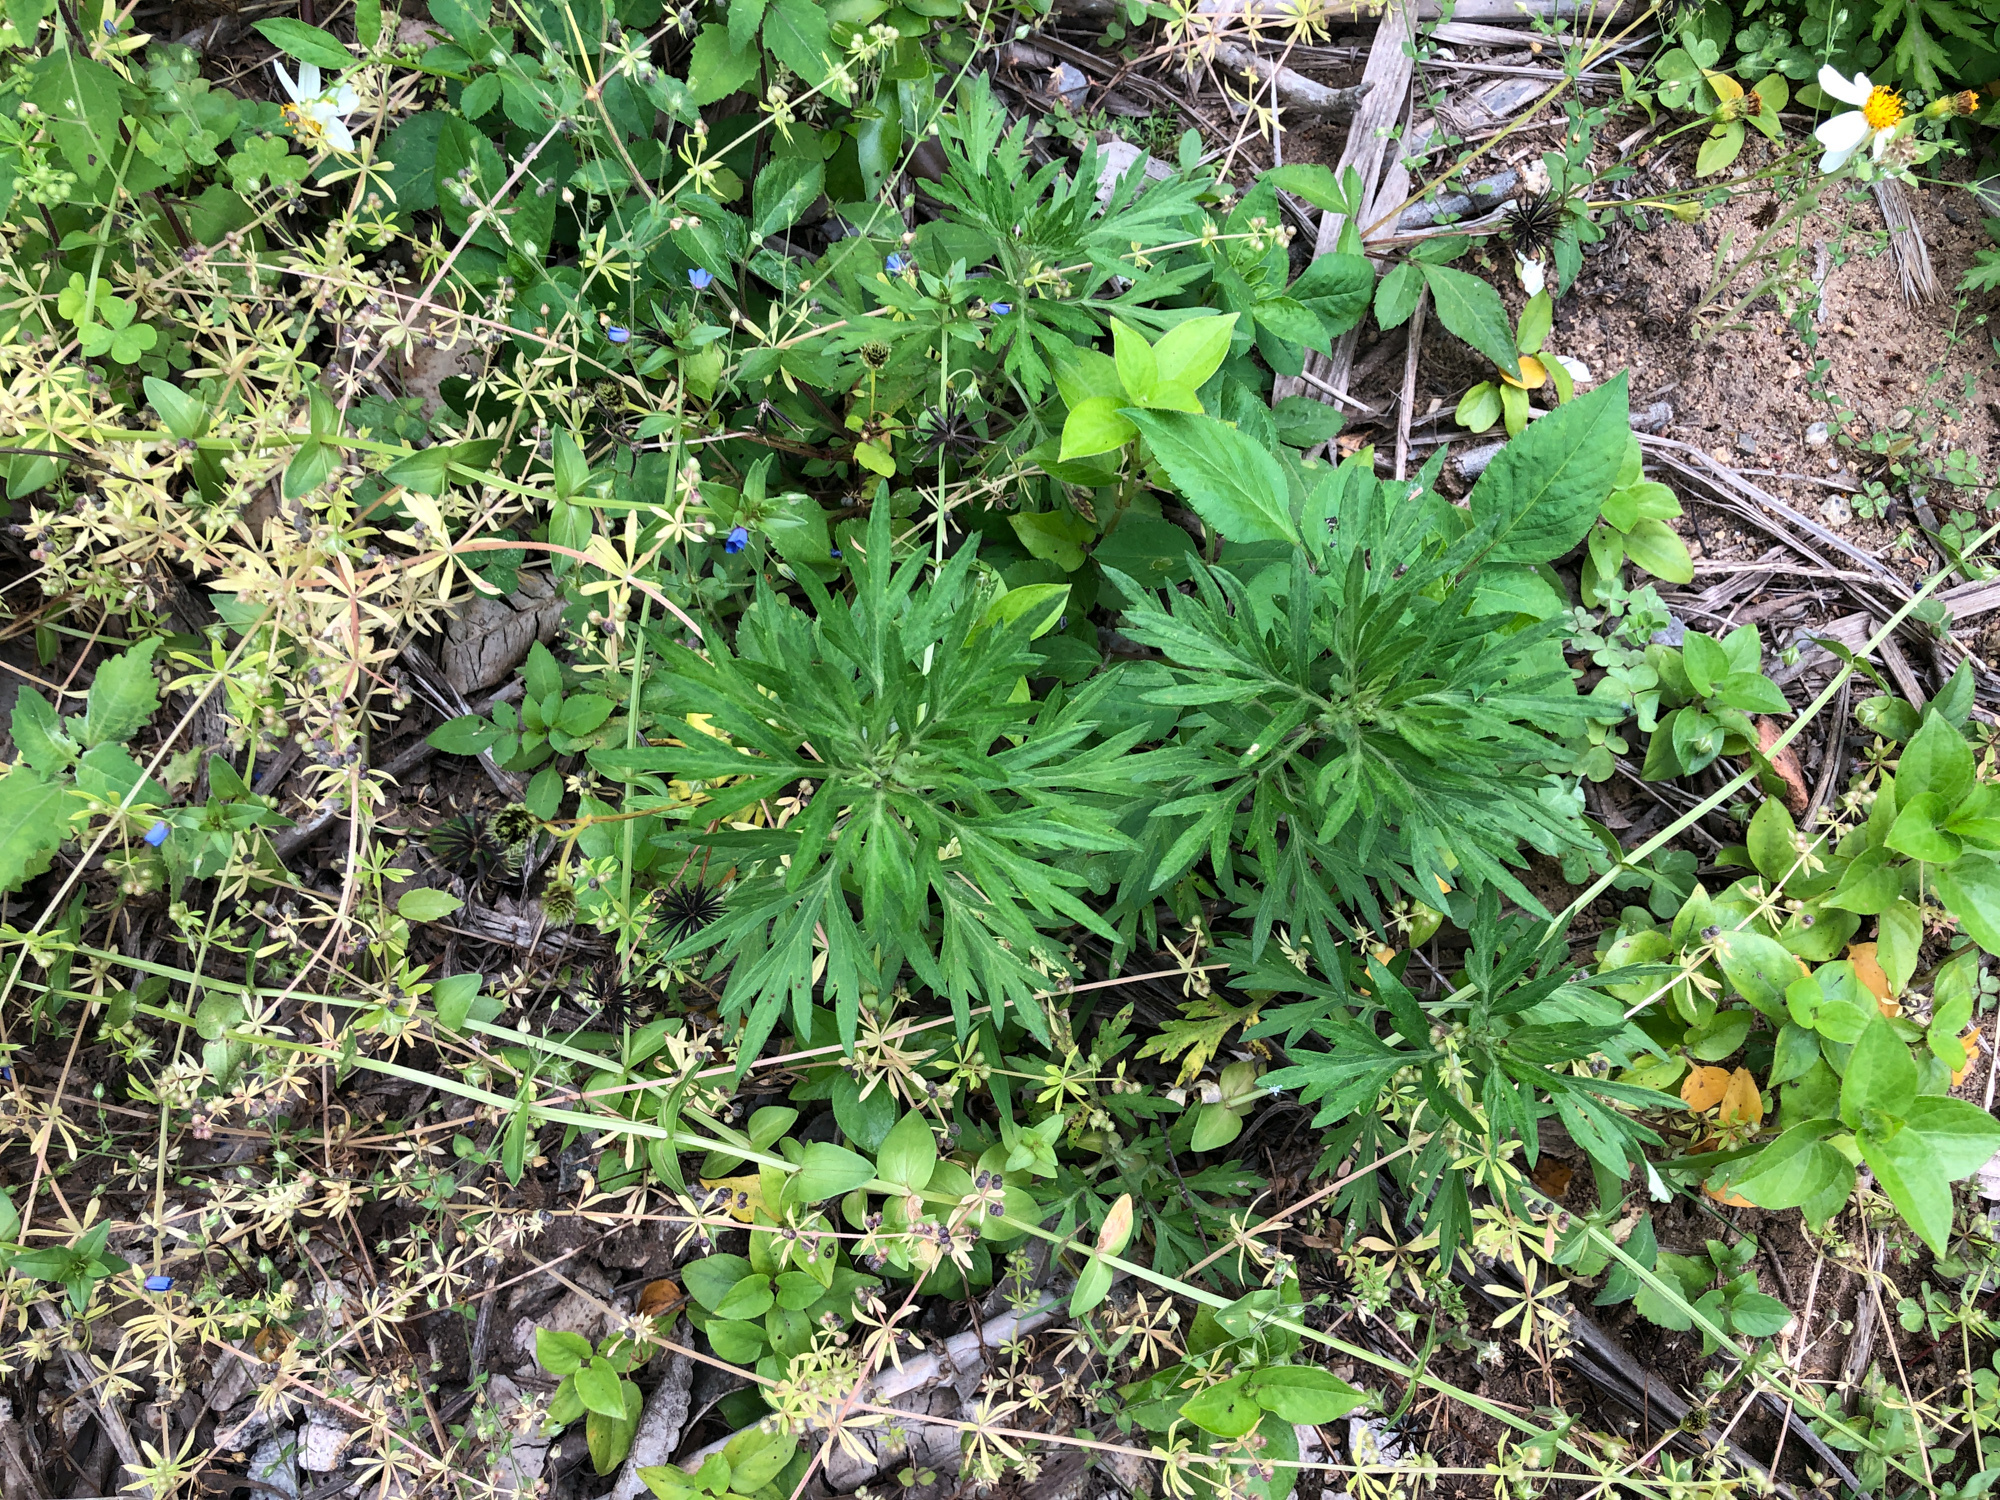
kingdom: Plantae
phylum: Tracheophyta
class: Magnoliopsida
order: Asterales
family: Asteraceae
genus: Artemisia
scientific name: Artemisia indica
